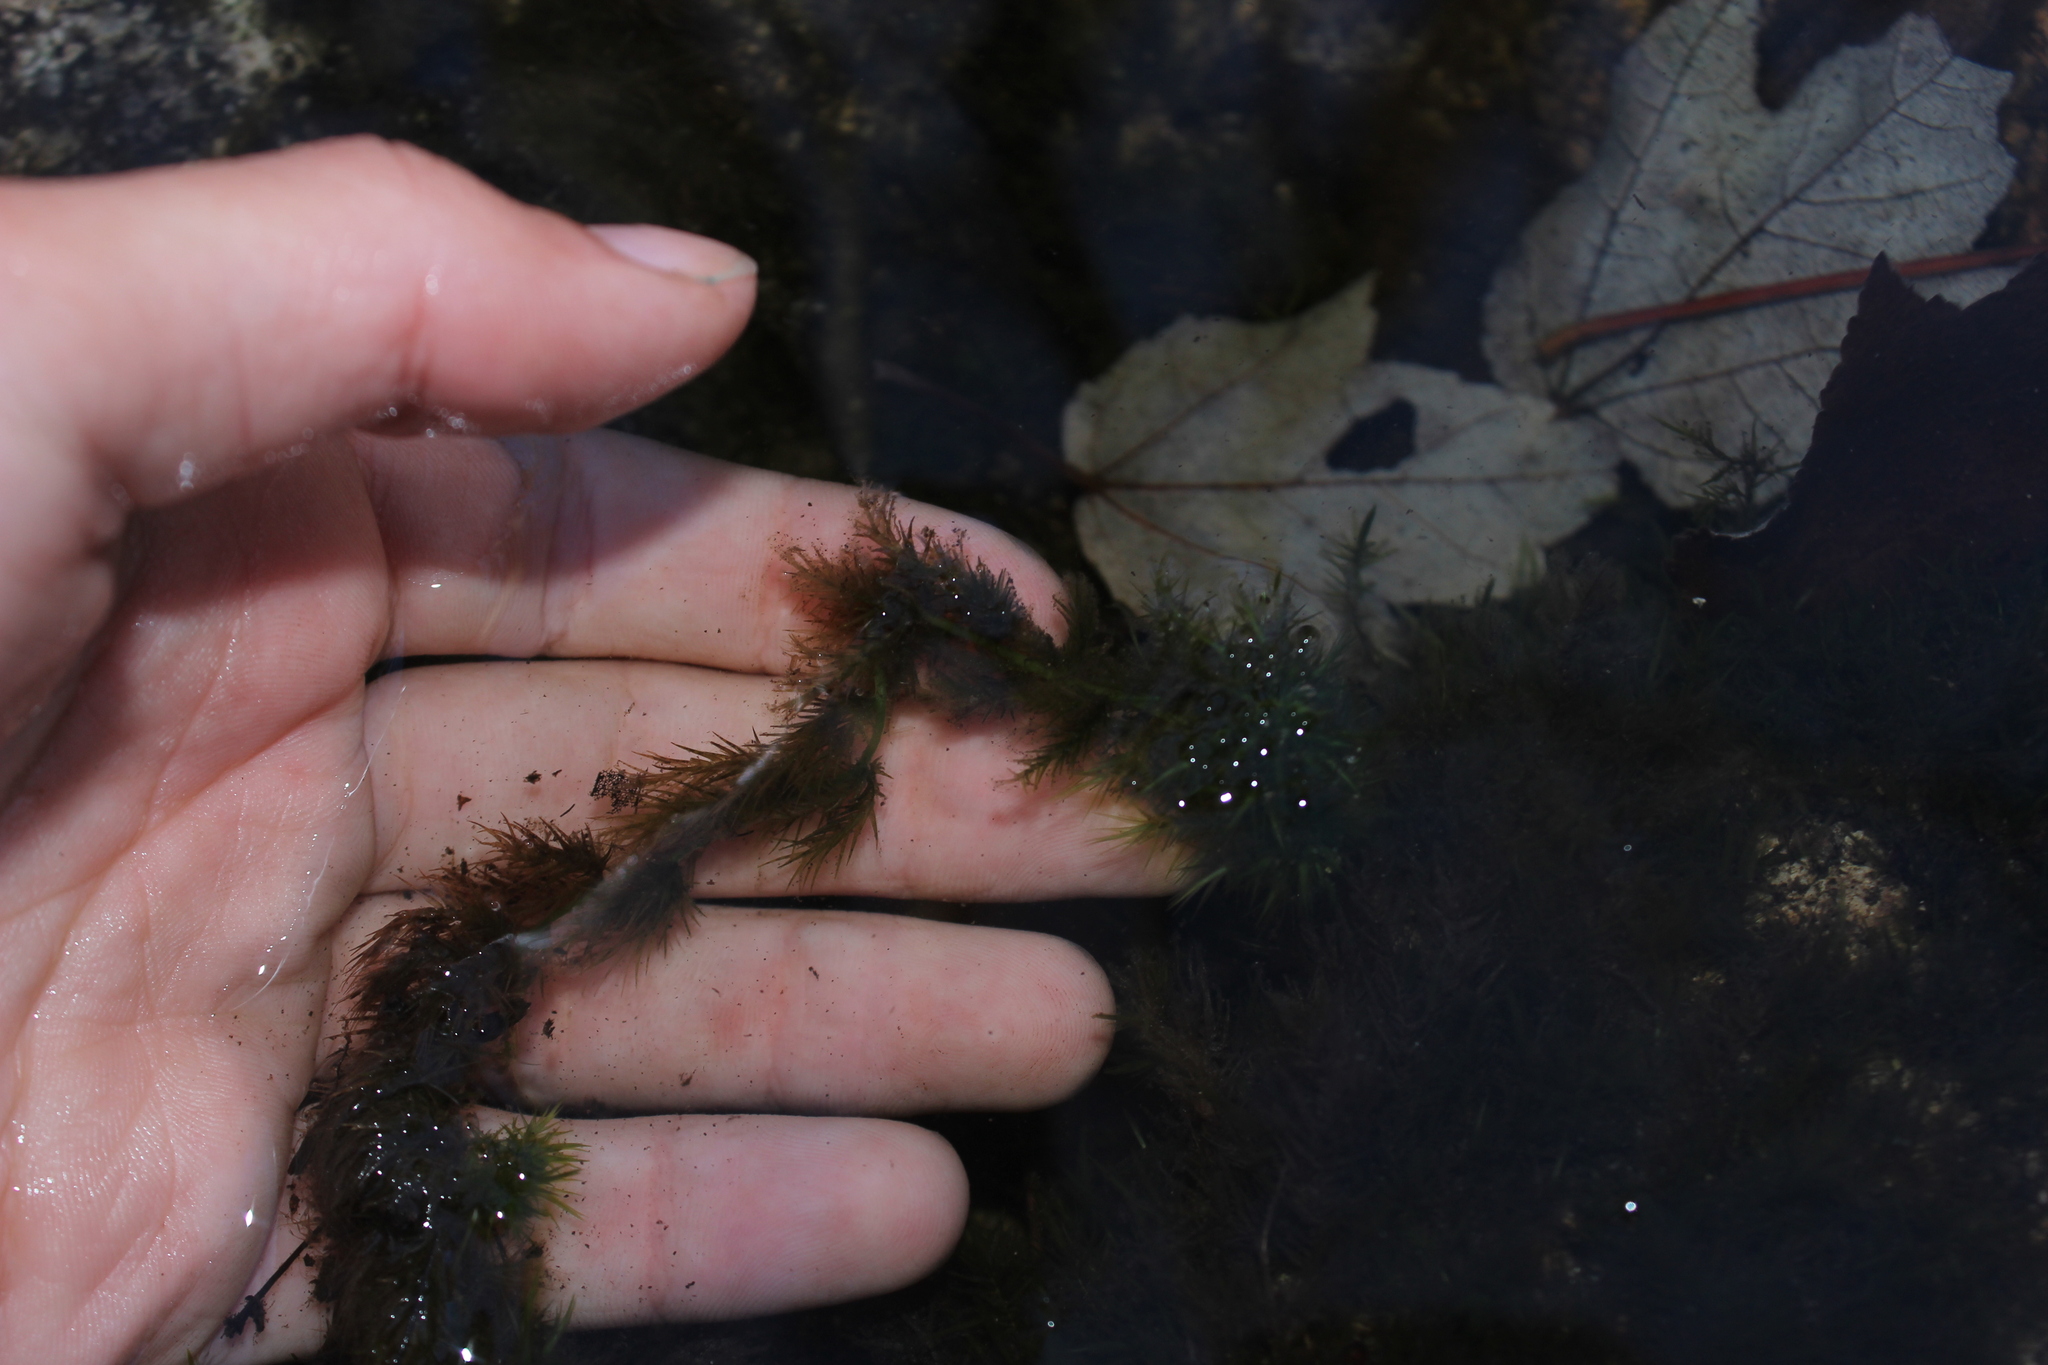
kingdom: Plantae
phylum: Bryophyta
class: Sphagnopsida
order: Sphagnales
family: Sphagnaceae
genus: Sphagnum
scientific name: Sphagnum
